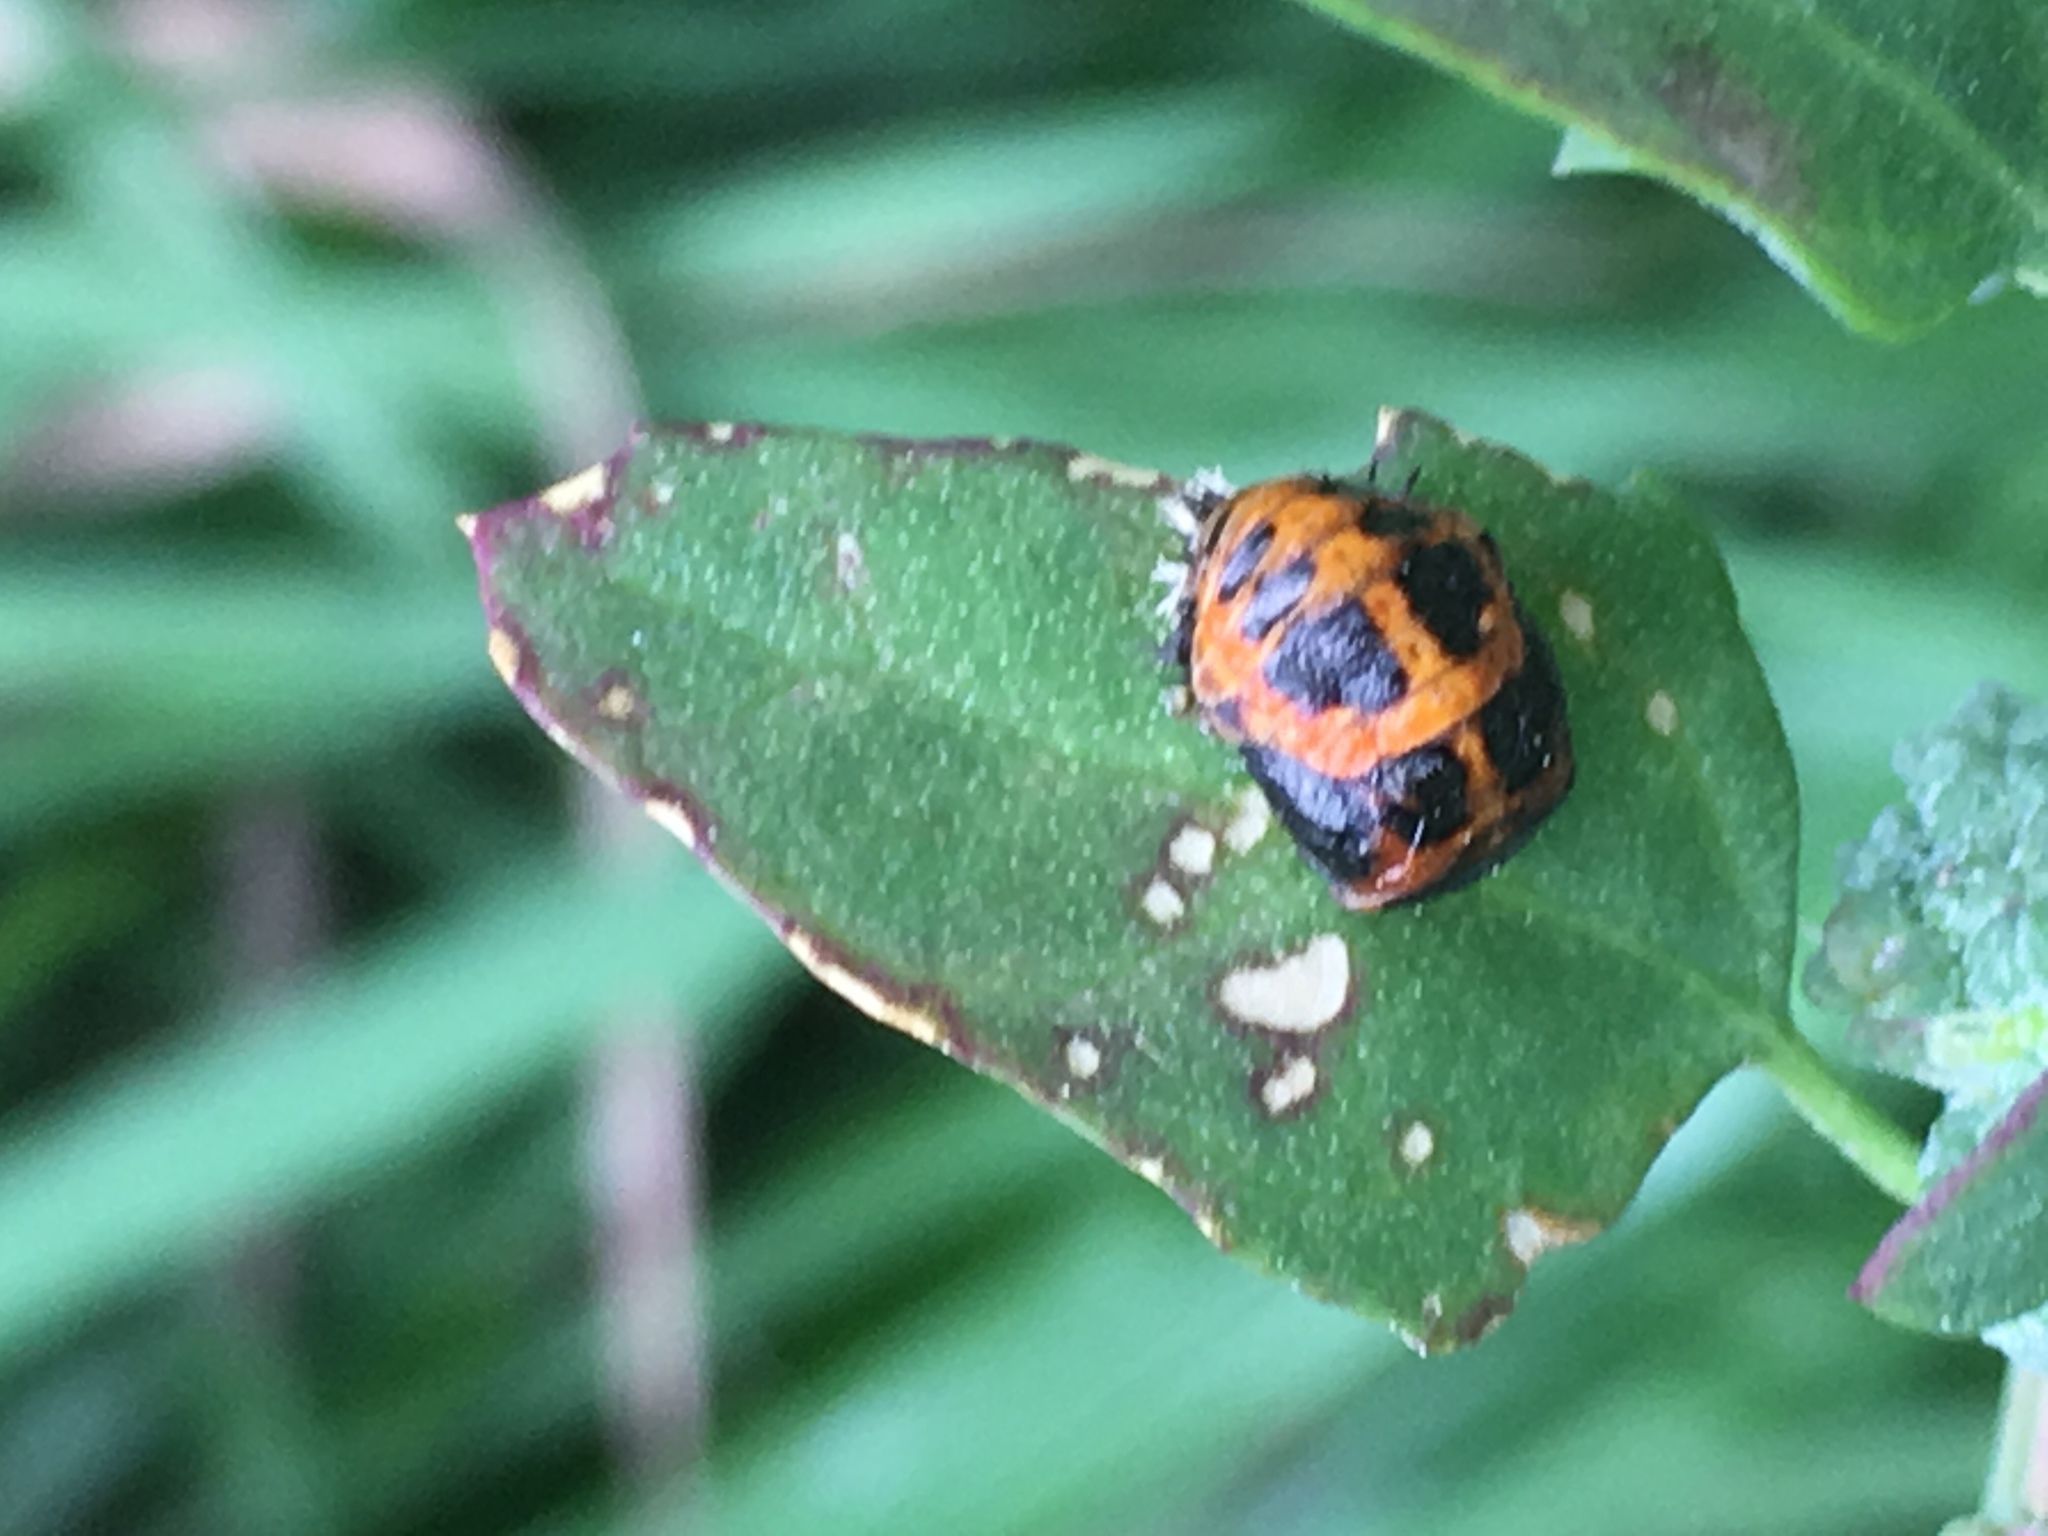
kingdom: Animalia
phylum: Arthropoda
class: Insecta
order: Coleoptera
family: Coccinellidae
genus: Harmonia
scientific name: Harmonia axyridis
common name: Harlequin ladybird
